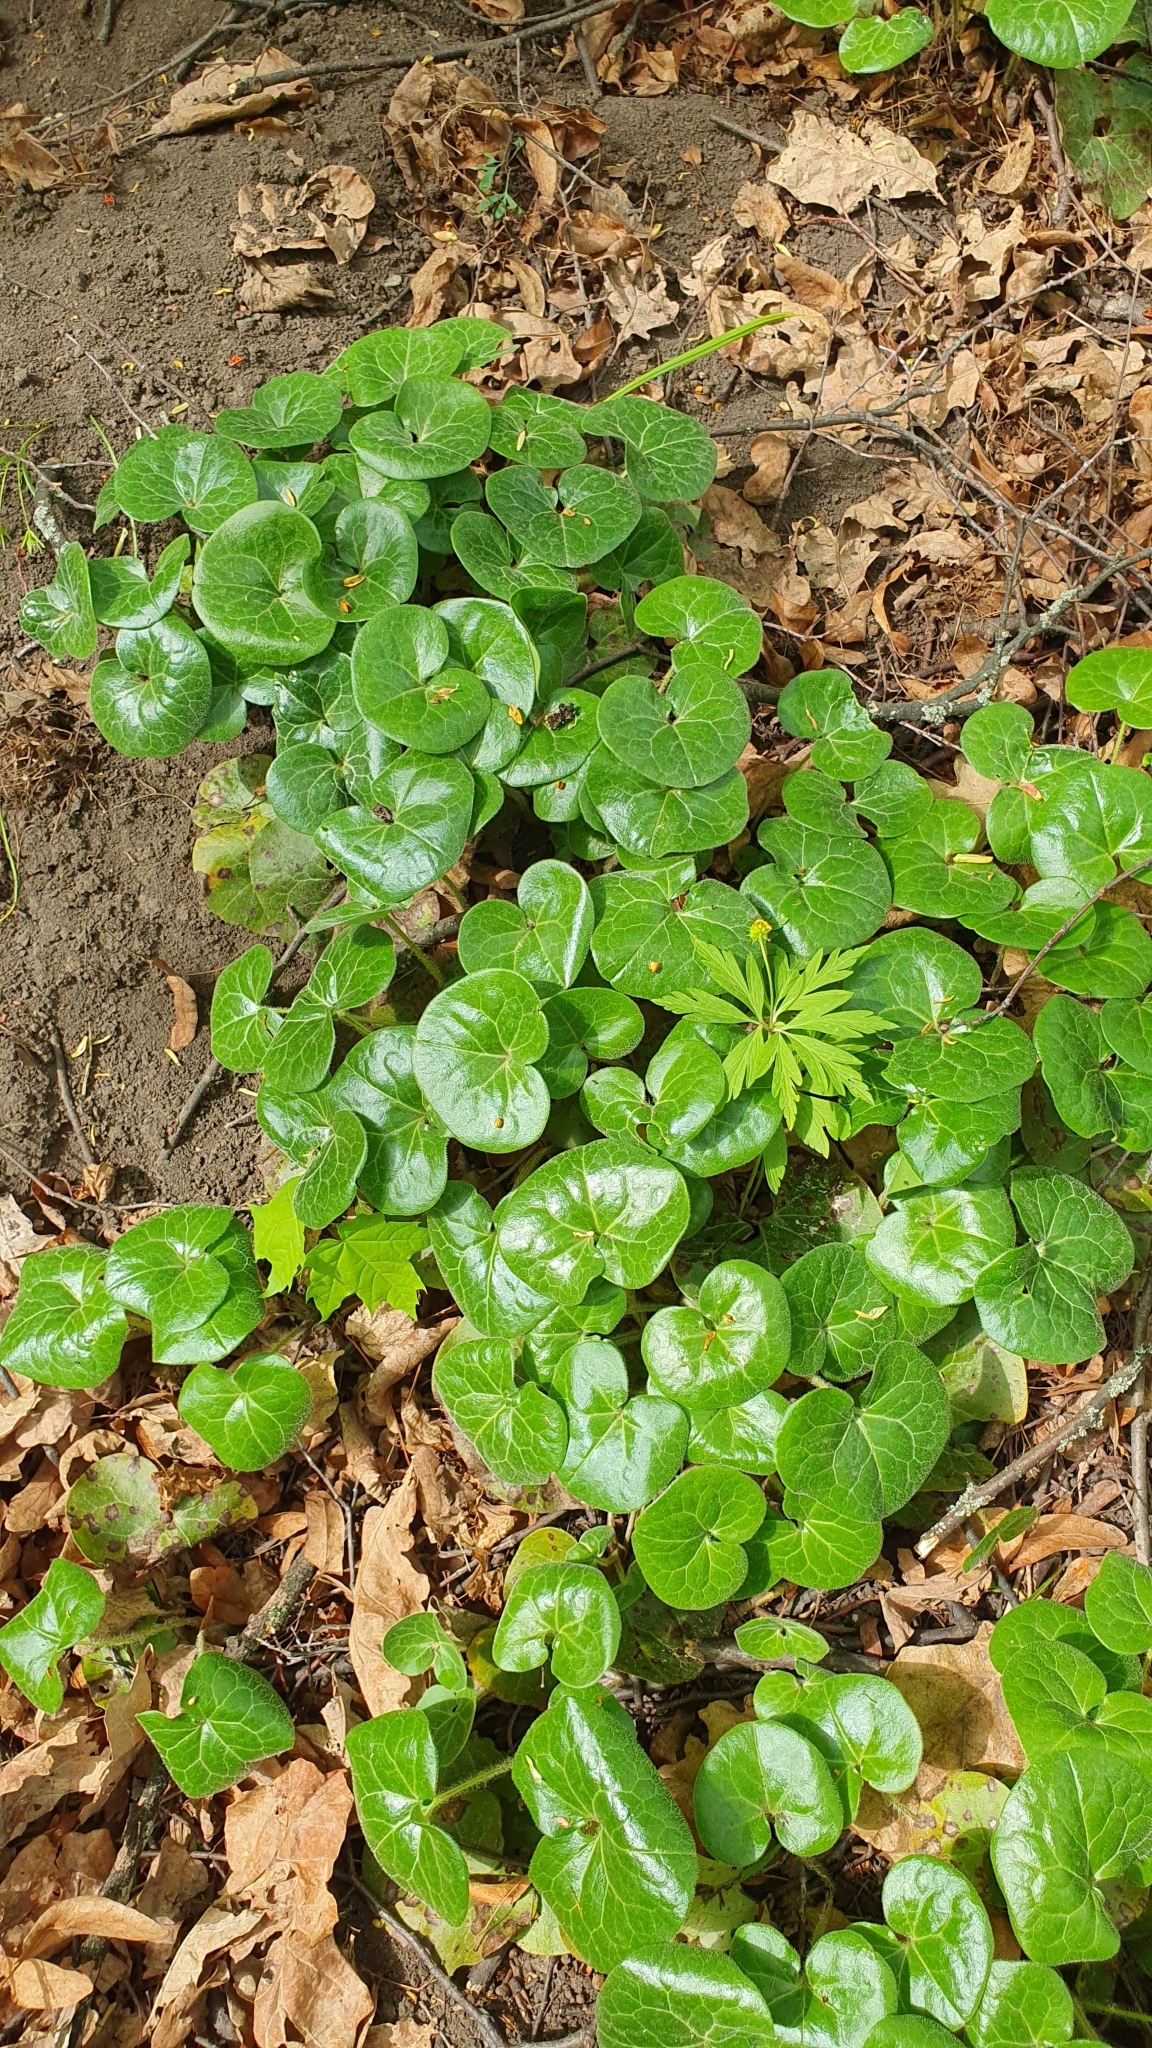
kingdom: Plantae
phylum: Tracheophyta
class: Magnoliopsida
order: Piperales
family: Aristolochiaceae
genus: Asarum
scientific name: Asarum europaeum
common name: Asarabacca
